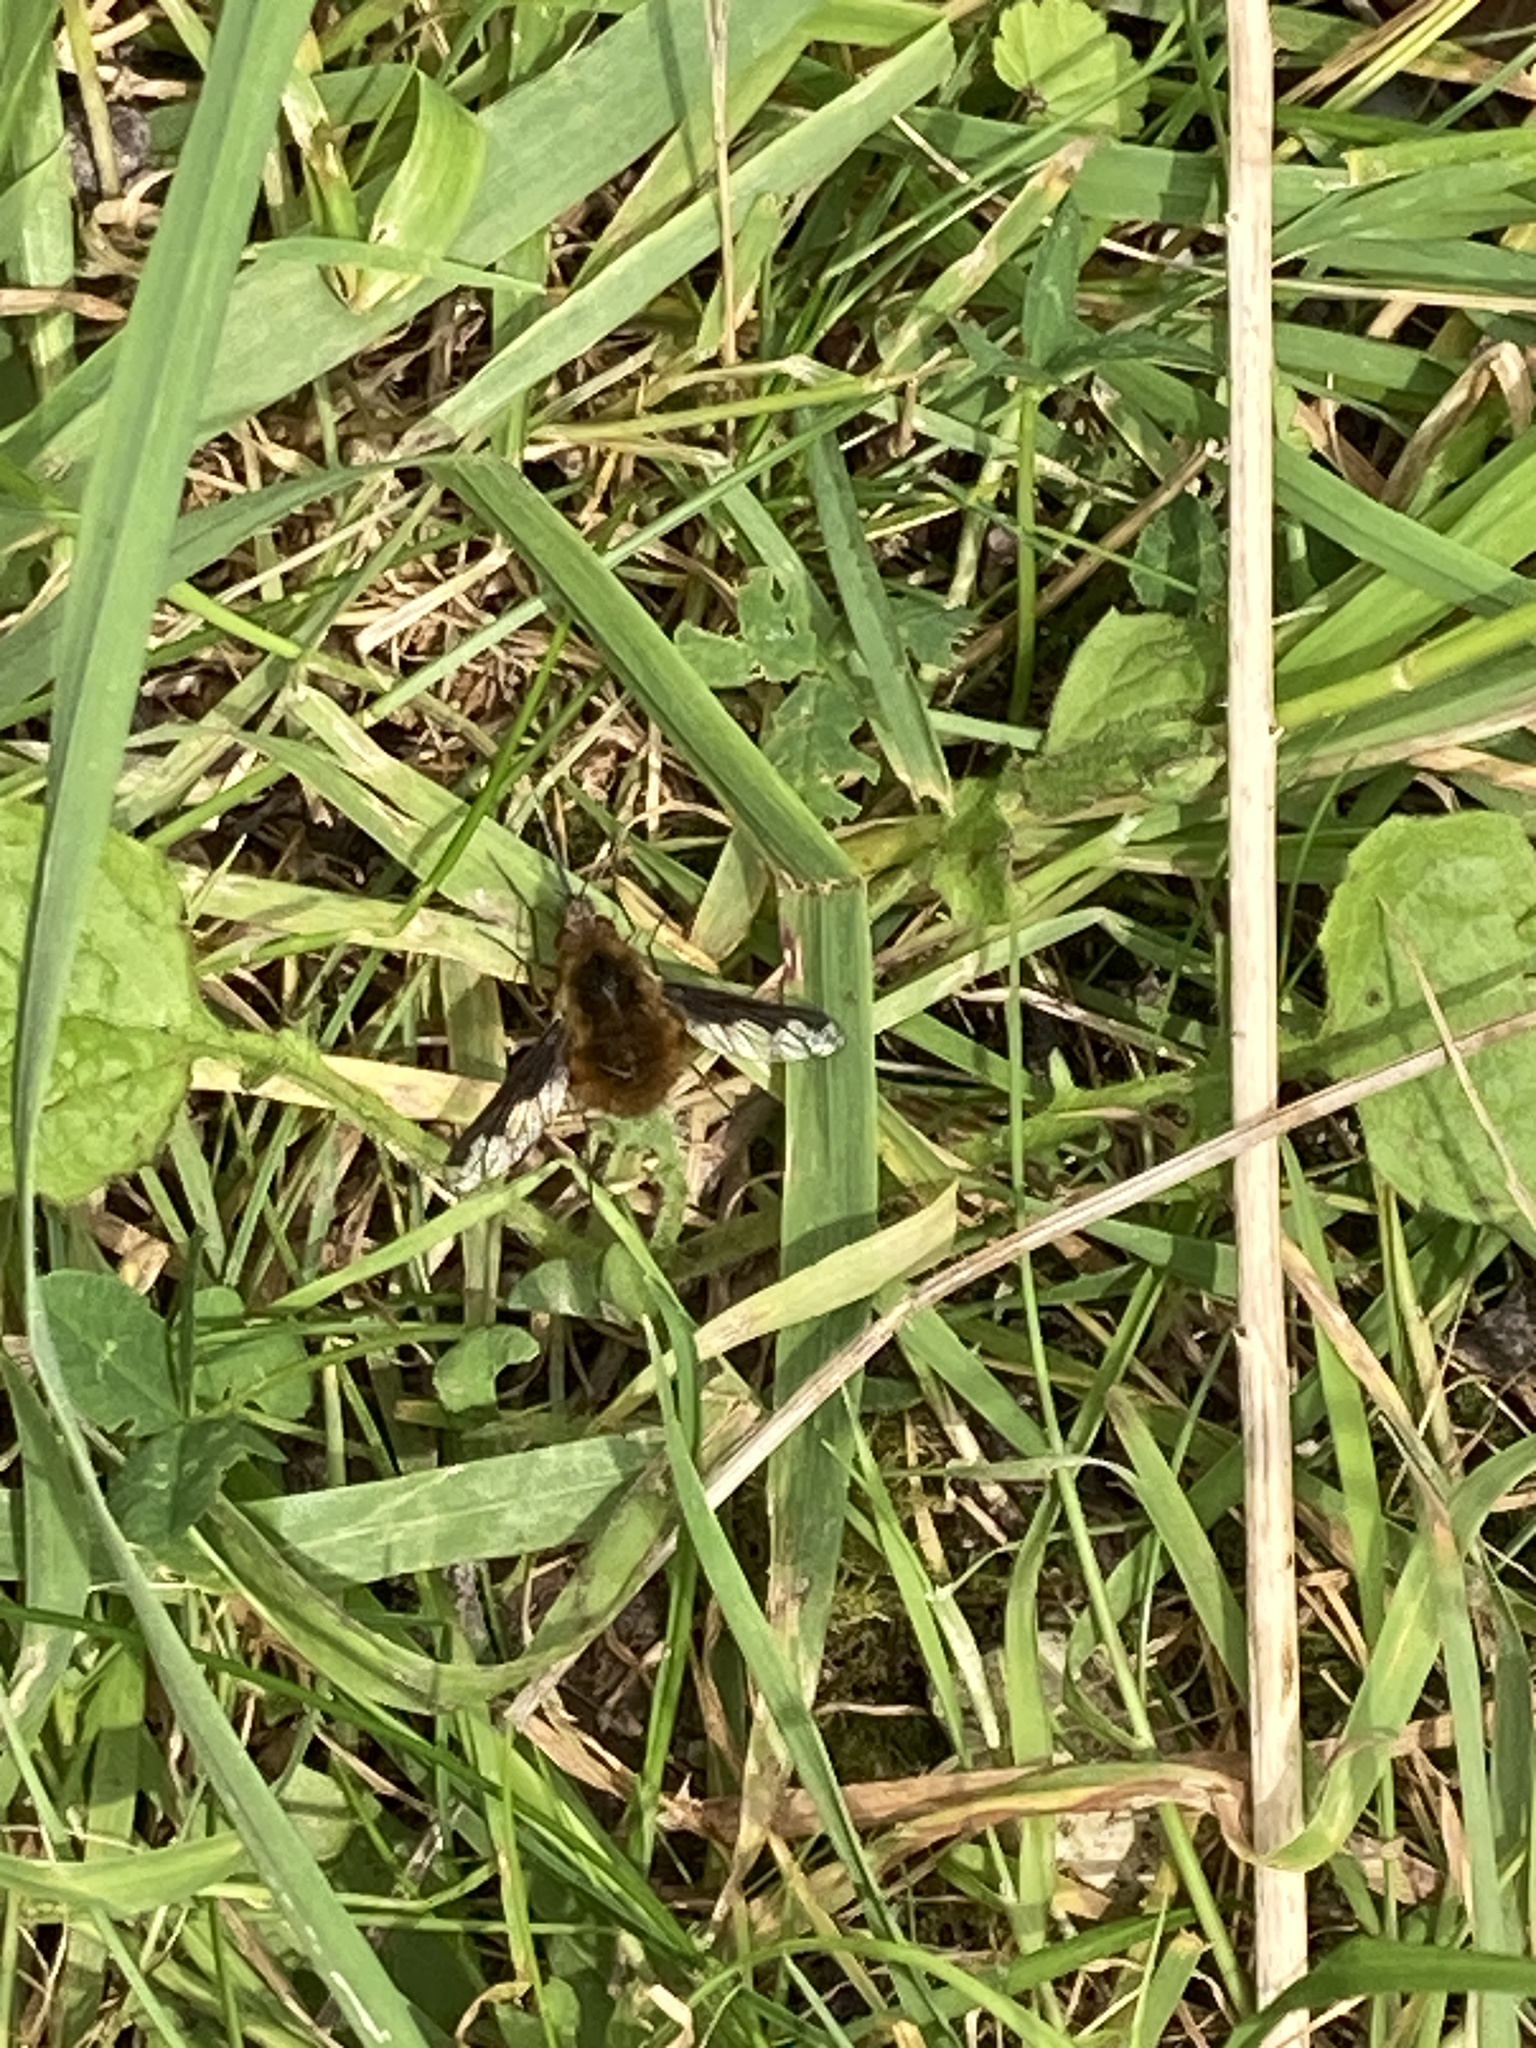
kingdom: Animalia
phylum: Arthropoda
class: Insecta
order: Diptera
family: Bombyliidae
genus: Bombylius
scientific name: Bombylius major
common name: Bee fly
